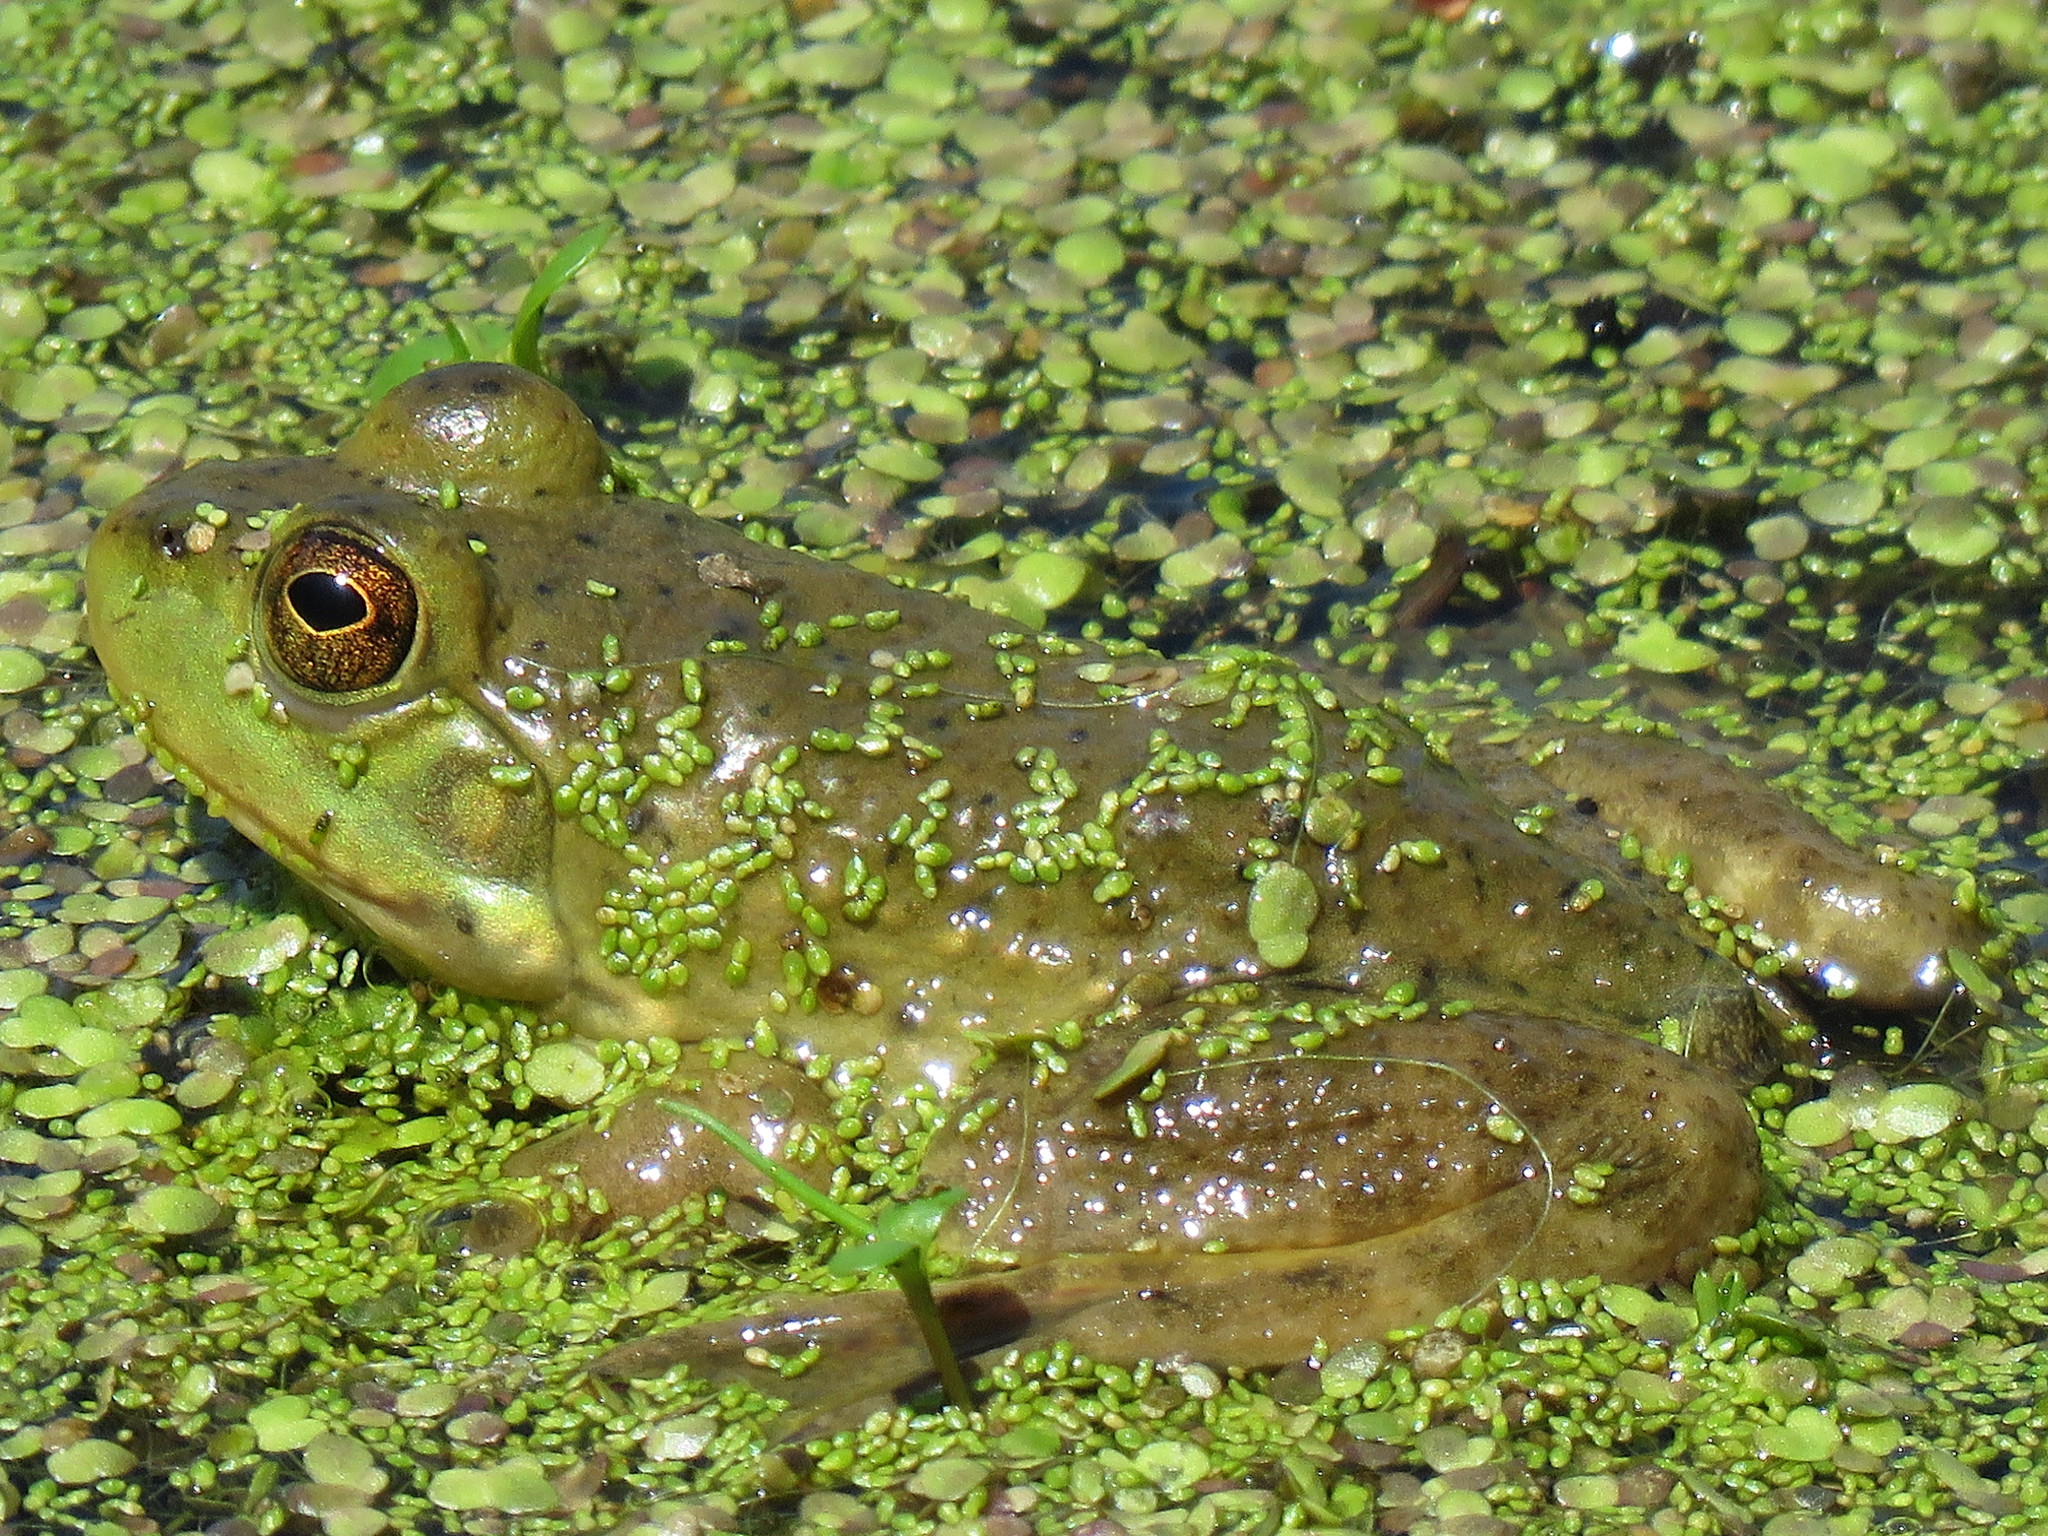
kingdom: Animalia
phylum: Chordata
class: Amphibia
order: Anura
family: Ranidae
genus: Lithobates
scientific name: Lithobates catesbeianus
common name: American bullfrog
